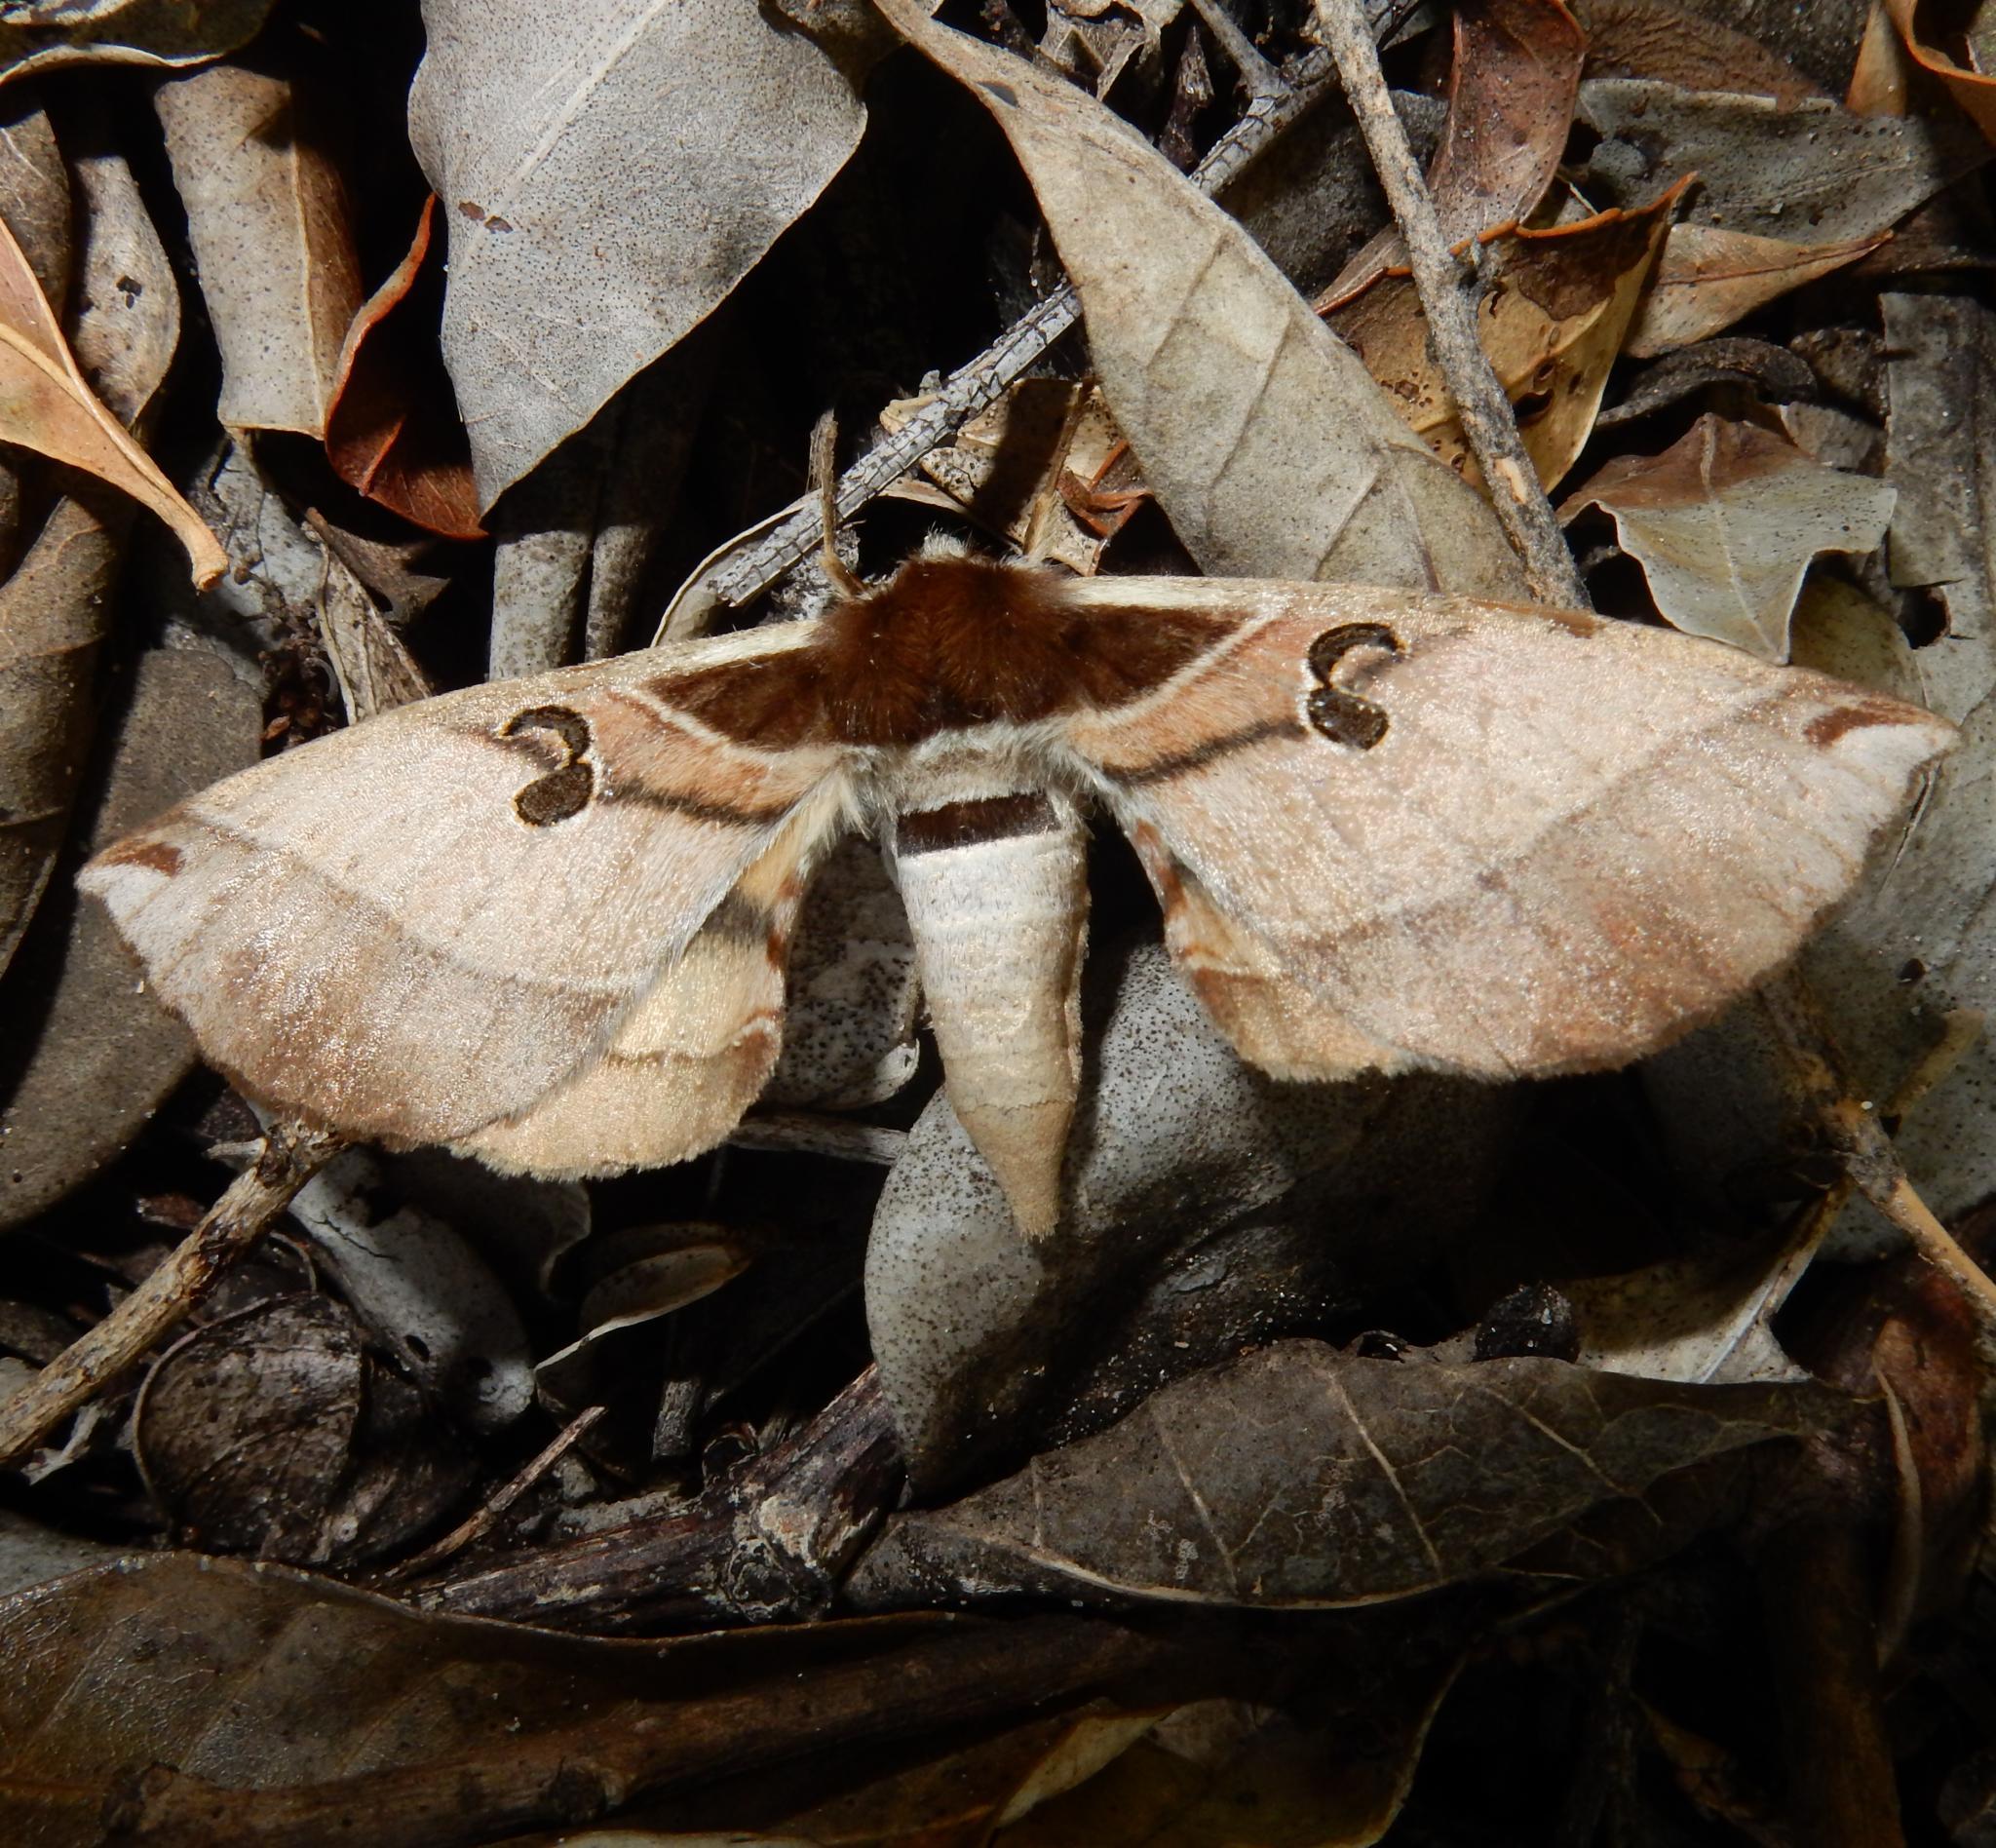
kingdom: Animalia
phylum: Arthropoda
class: Insecta
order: Lepidoptera
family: Brahmaeidae
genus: Spiramiopsis
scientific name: Spiramiopsis comma
